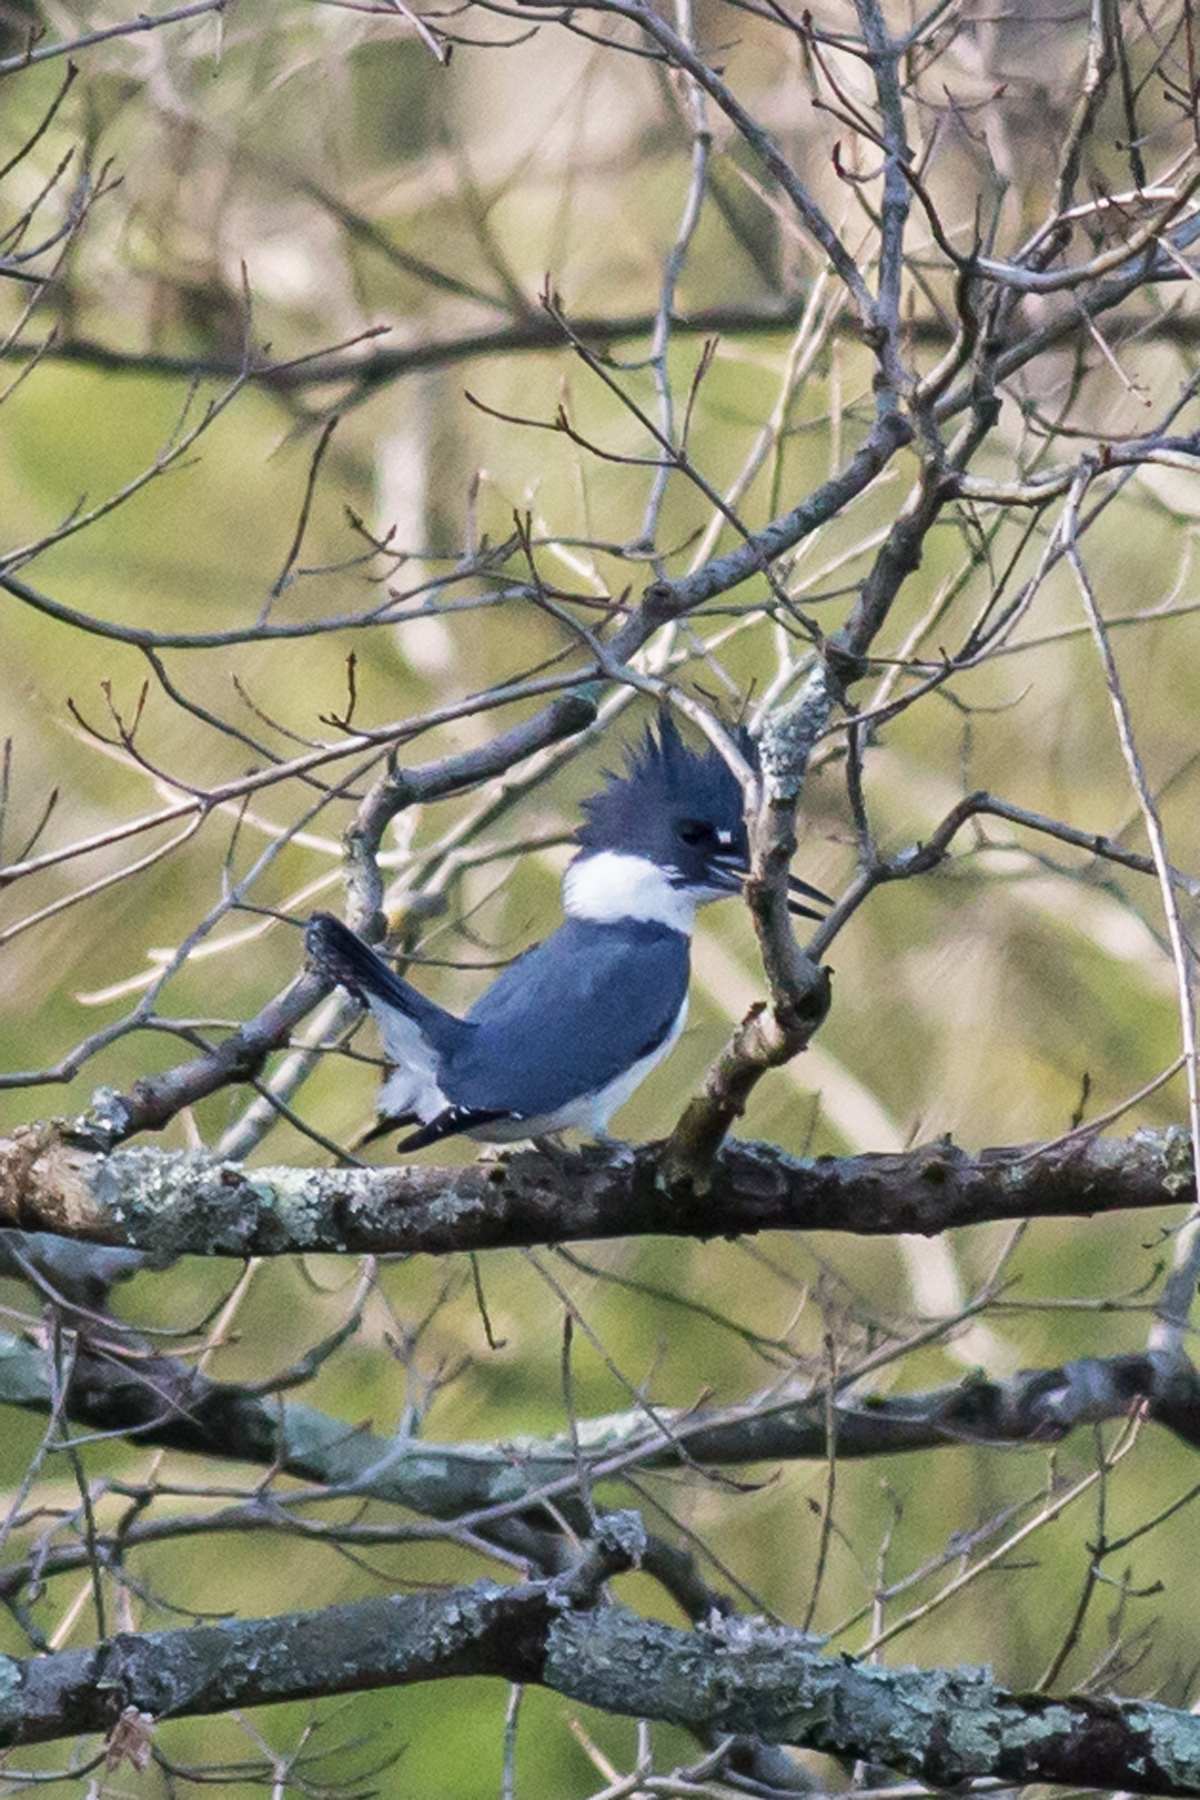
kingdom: Animalia
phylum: Chordata
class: Aves
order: Coraciiformes
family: Alcedinidae
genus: Megaceryle
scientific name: Megaceryle alcyon
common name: Belted kingfisher
